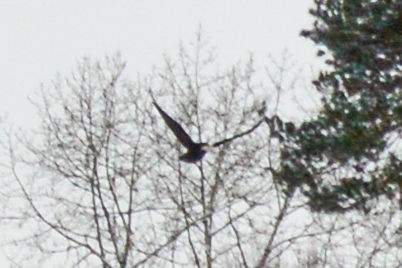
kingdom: Animalia
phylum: Chordata
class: Aves
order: Passeriformes
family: Corvidae
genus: Corvus
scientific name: Corvus corax
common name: Common raven
